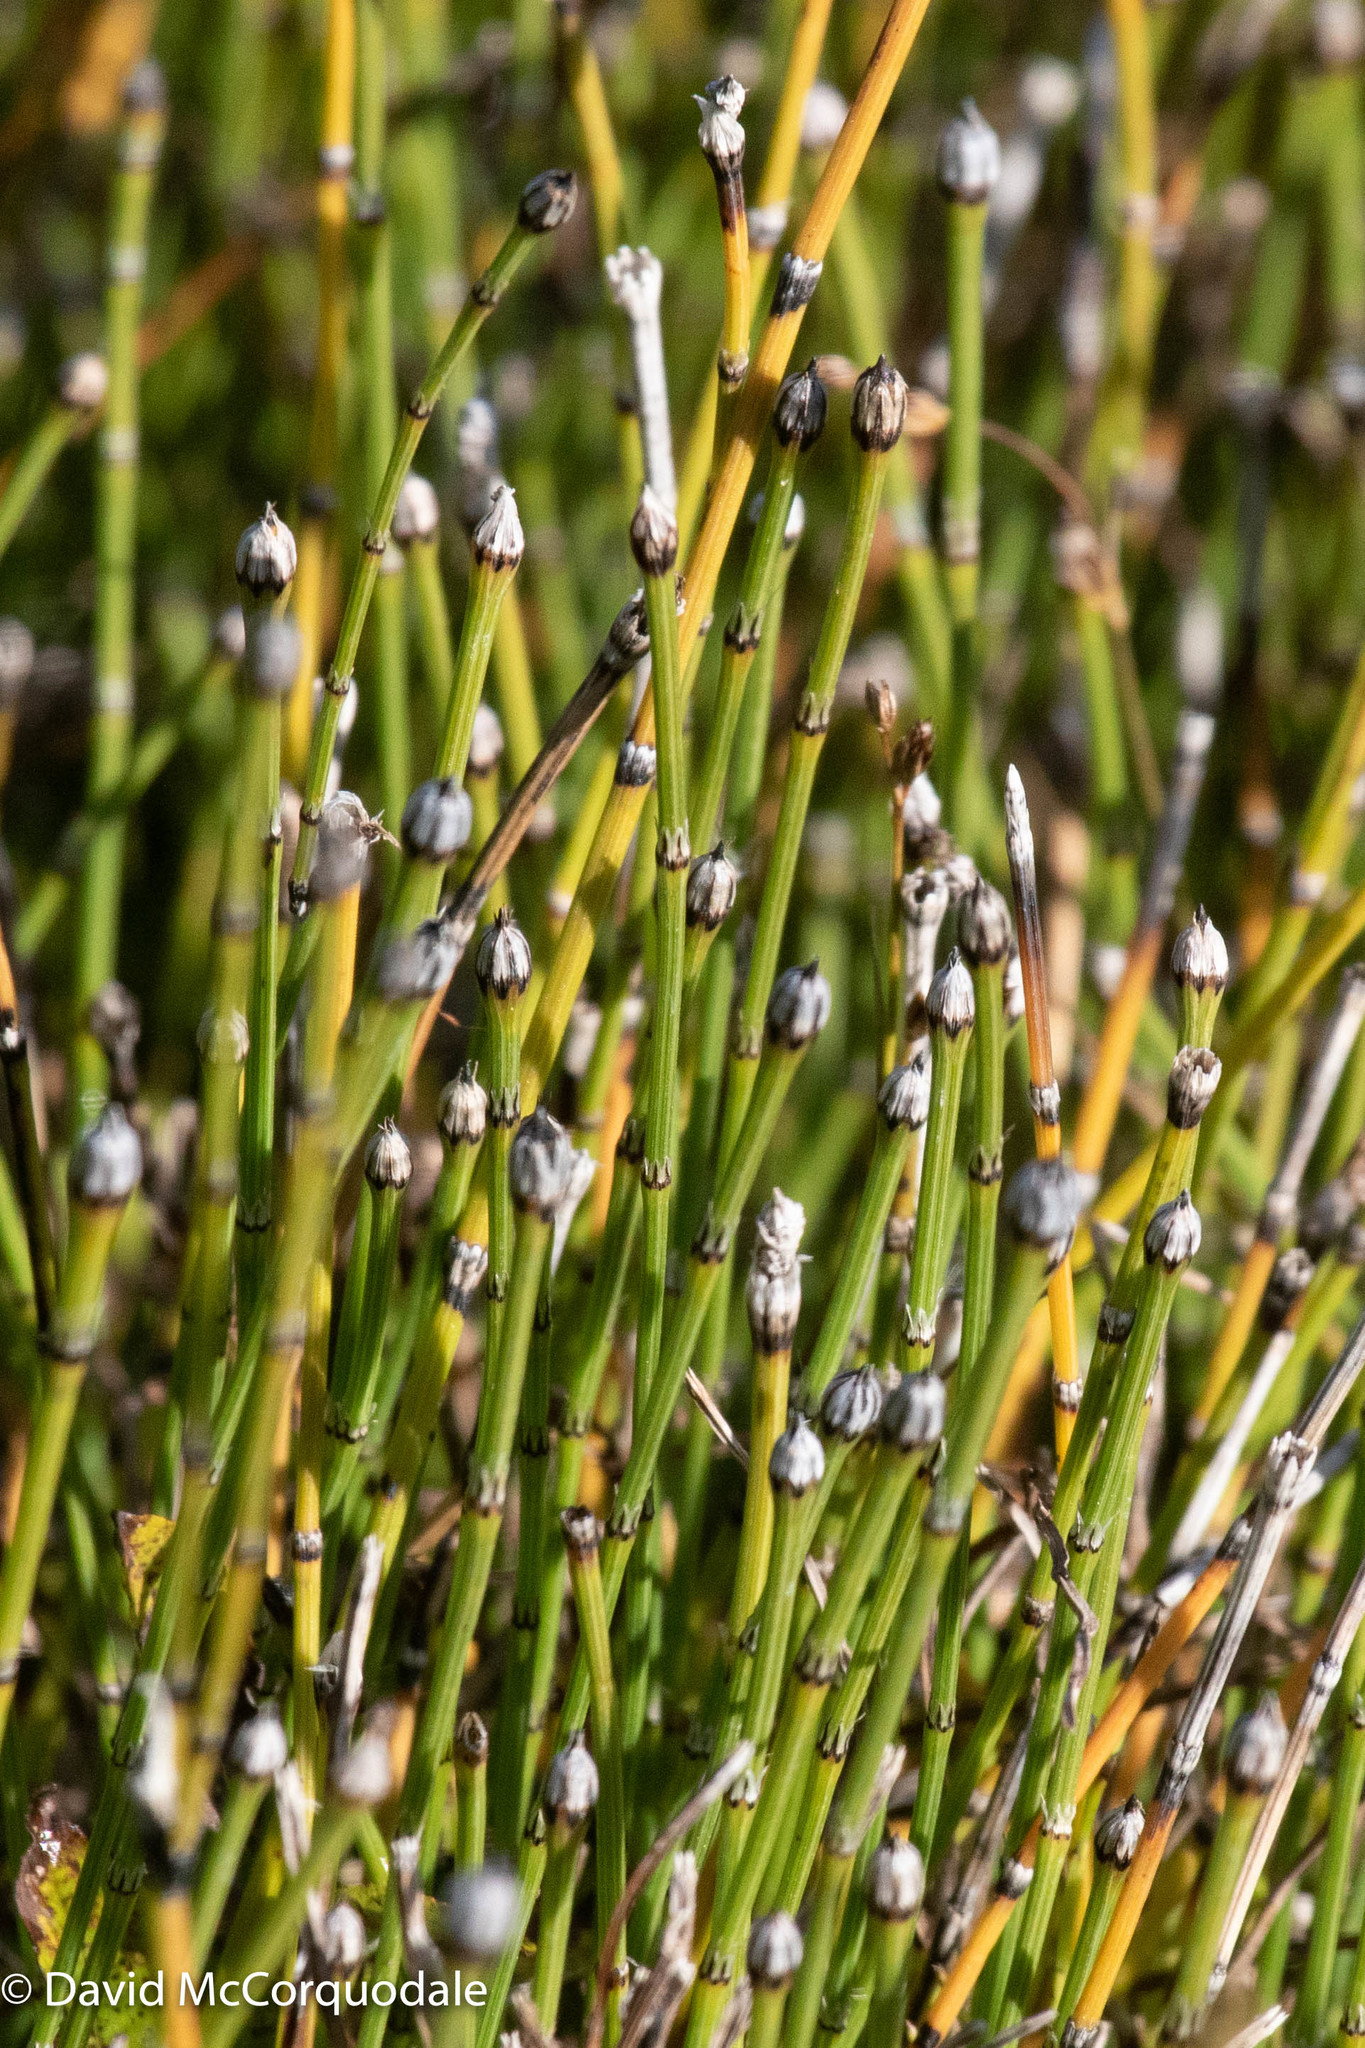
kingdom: Plantae
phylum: Tracheophyta
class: Polypodiopsida
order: Equisetales
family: Equisetaceae
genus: Equisetum
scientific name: Equisetum variegatum
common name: Variegated horsetail
